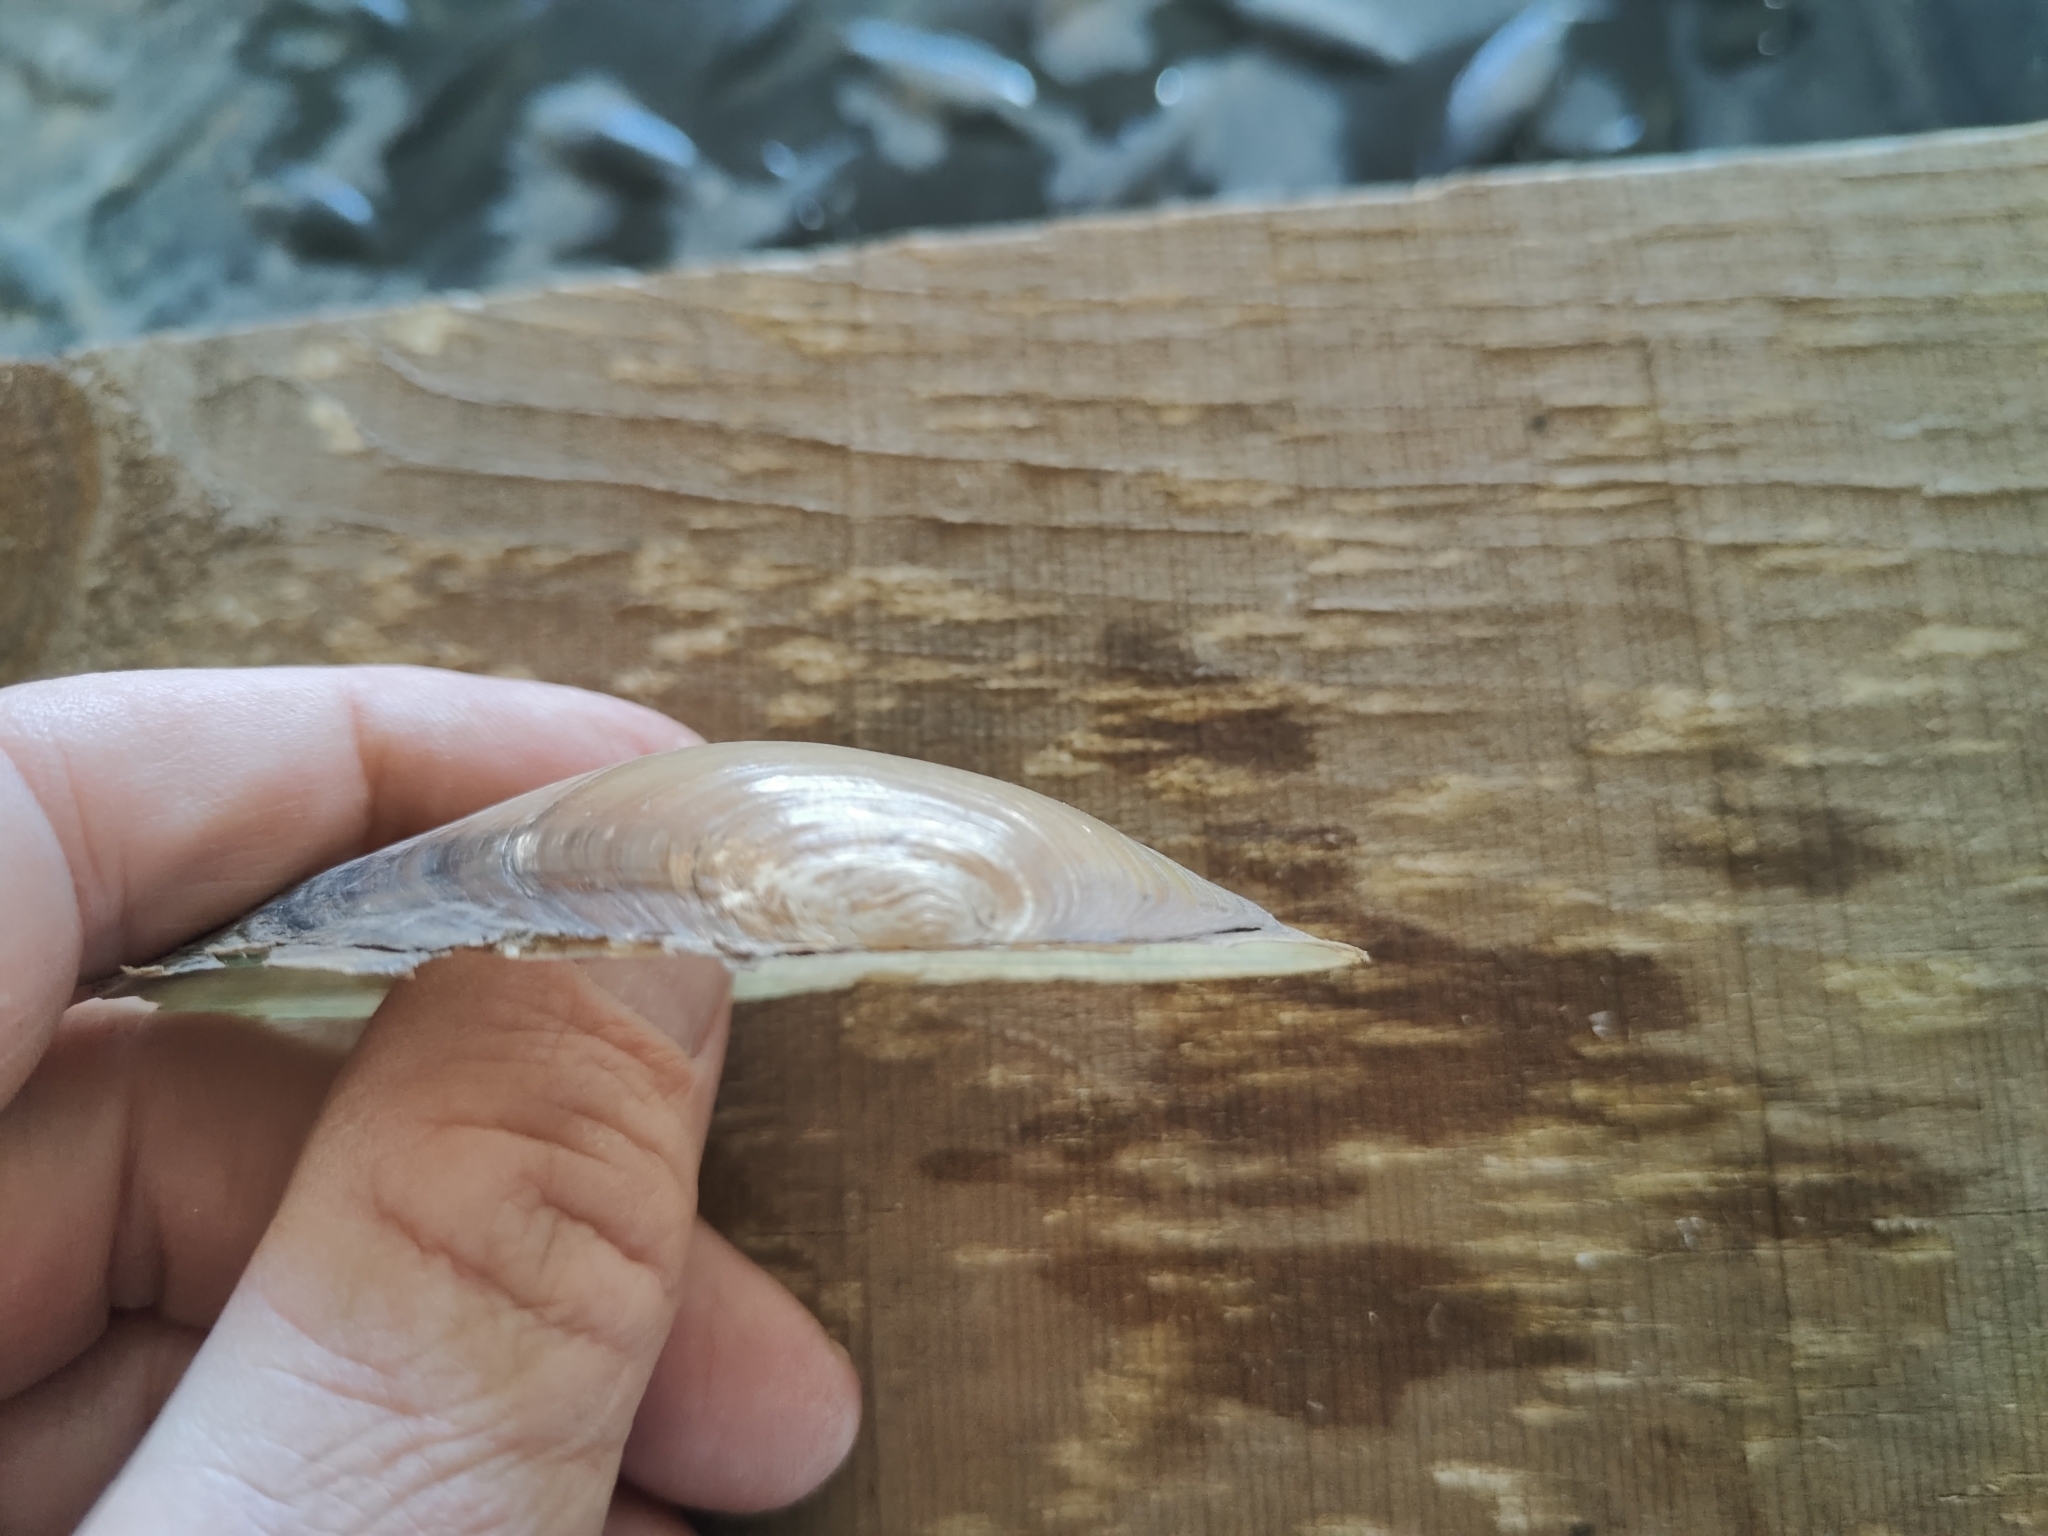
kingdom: Animalia
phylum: Mollusca
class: Bivalvia
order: Unionida
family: Unionidae
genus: Utterbackia
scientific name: Utterbackia imbecillis
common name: Paper pondshell
